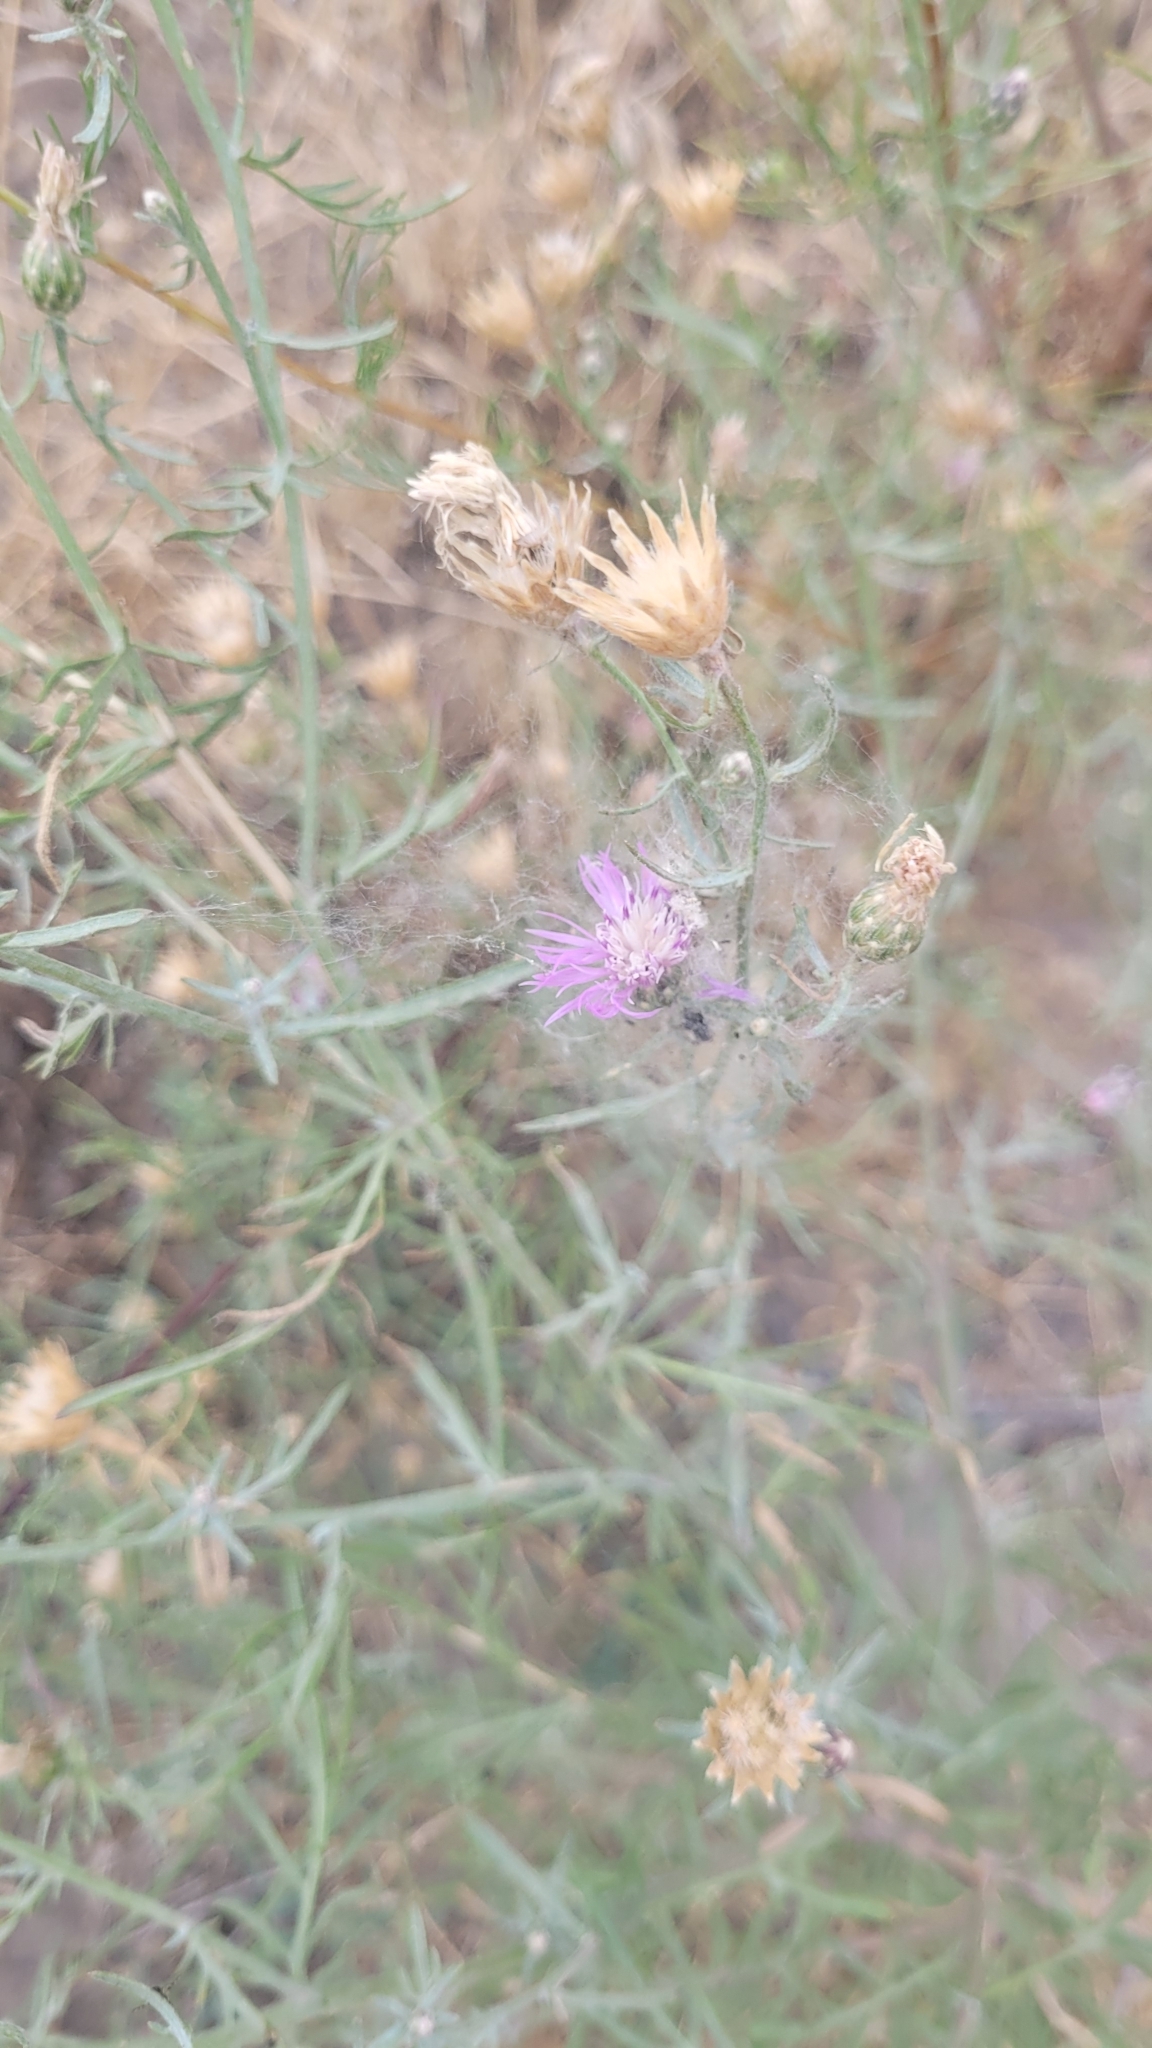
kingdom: Plantae
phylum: Tracheophyta
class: Magnoliopsida
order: Asterales
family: Asteraceae
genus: Centaurea
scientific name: Centaurea arenaria
